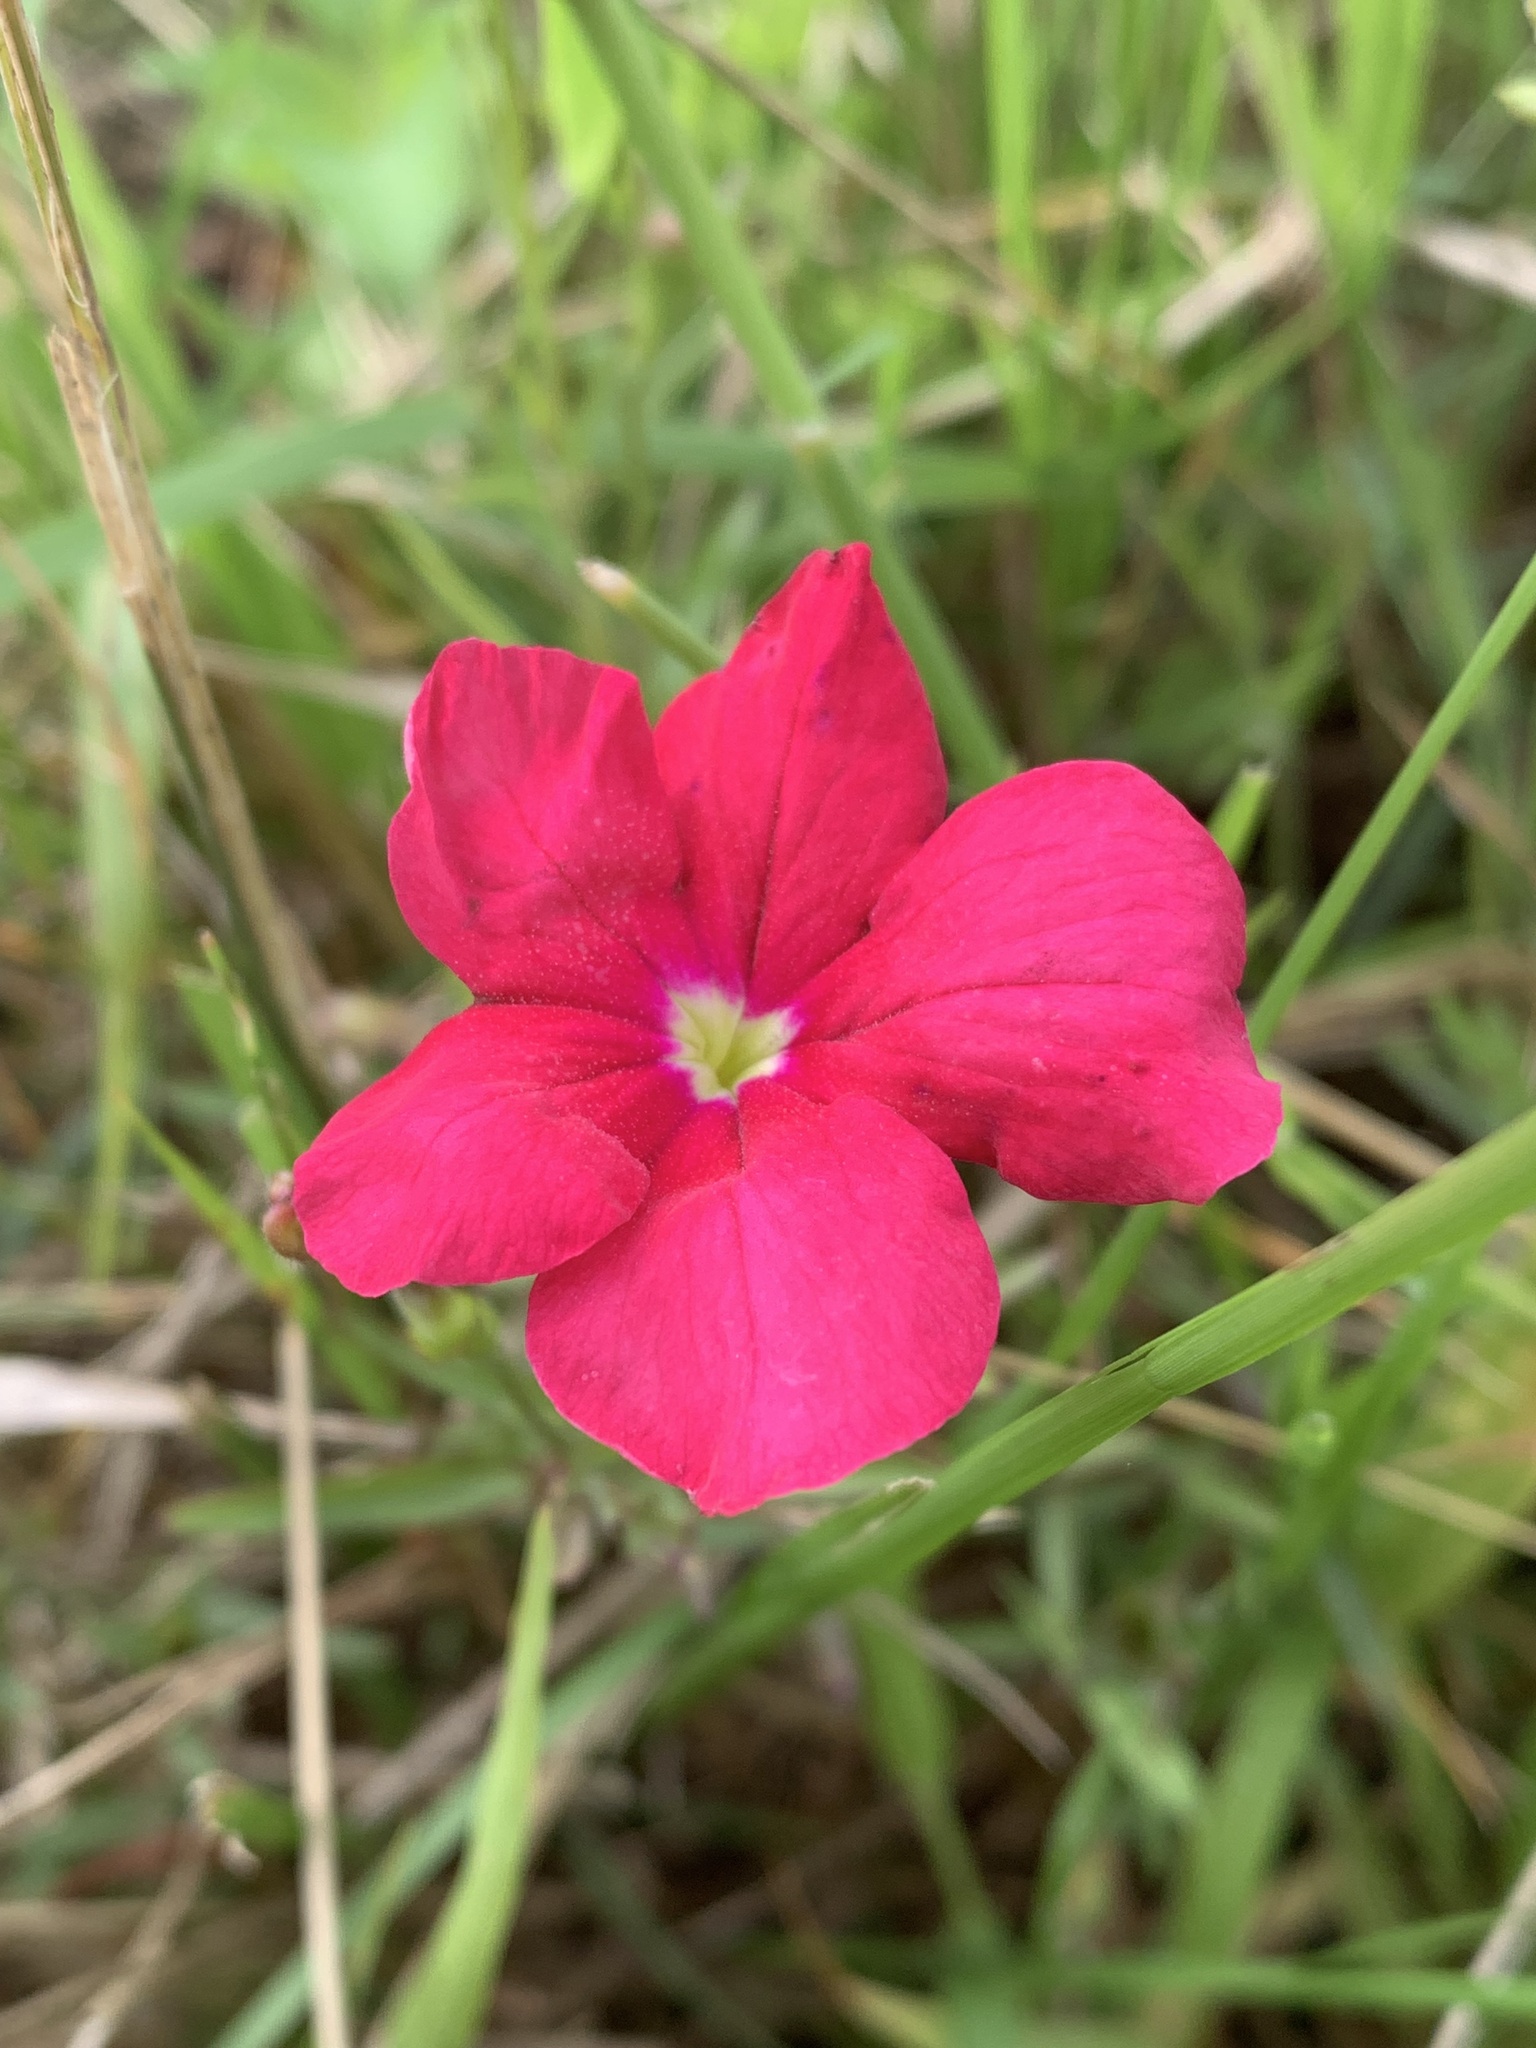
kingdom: Plantae
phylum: Tracheophyta
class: Magnoliopsida
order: Lamiales
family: Orobanchaceae
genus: Cycnium
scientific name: Cycnium tubulosum
